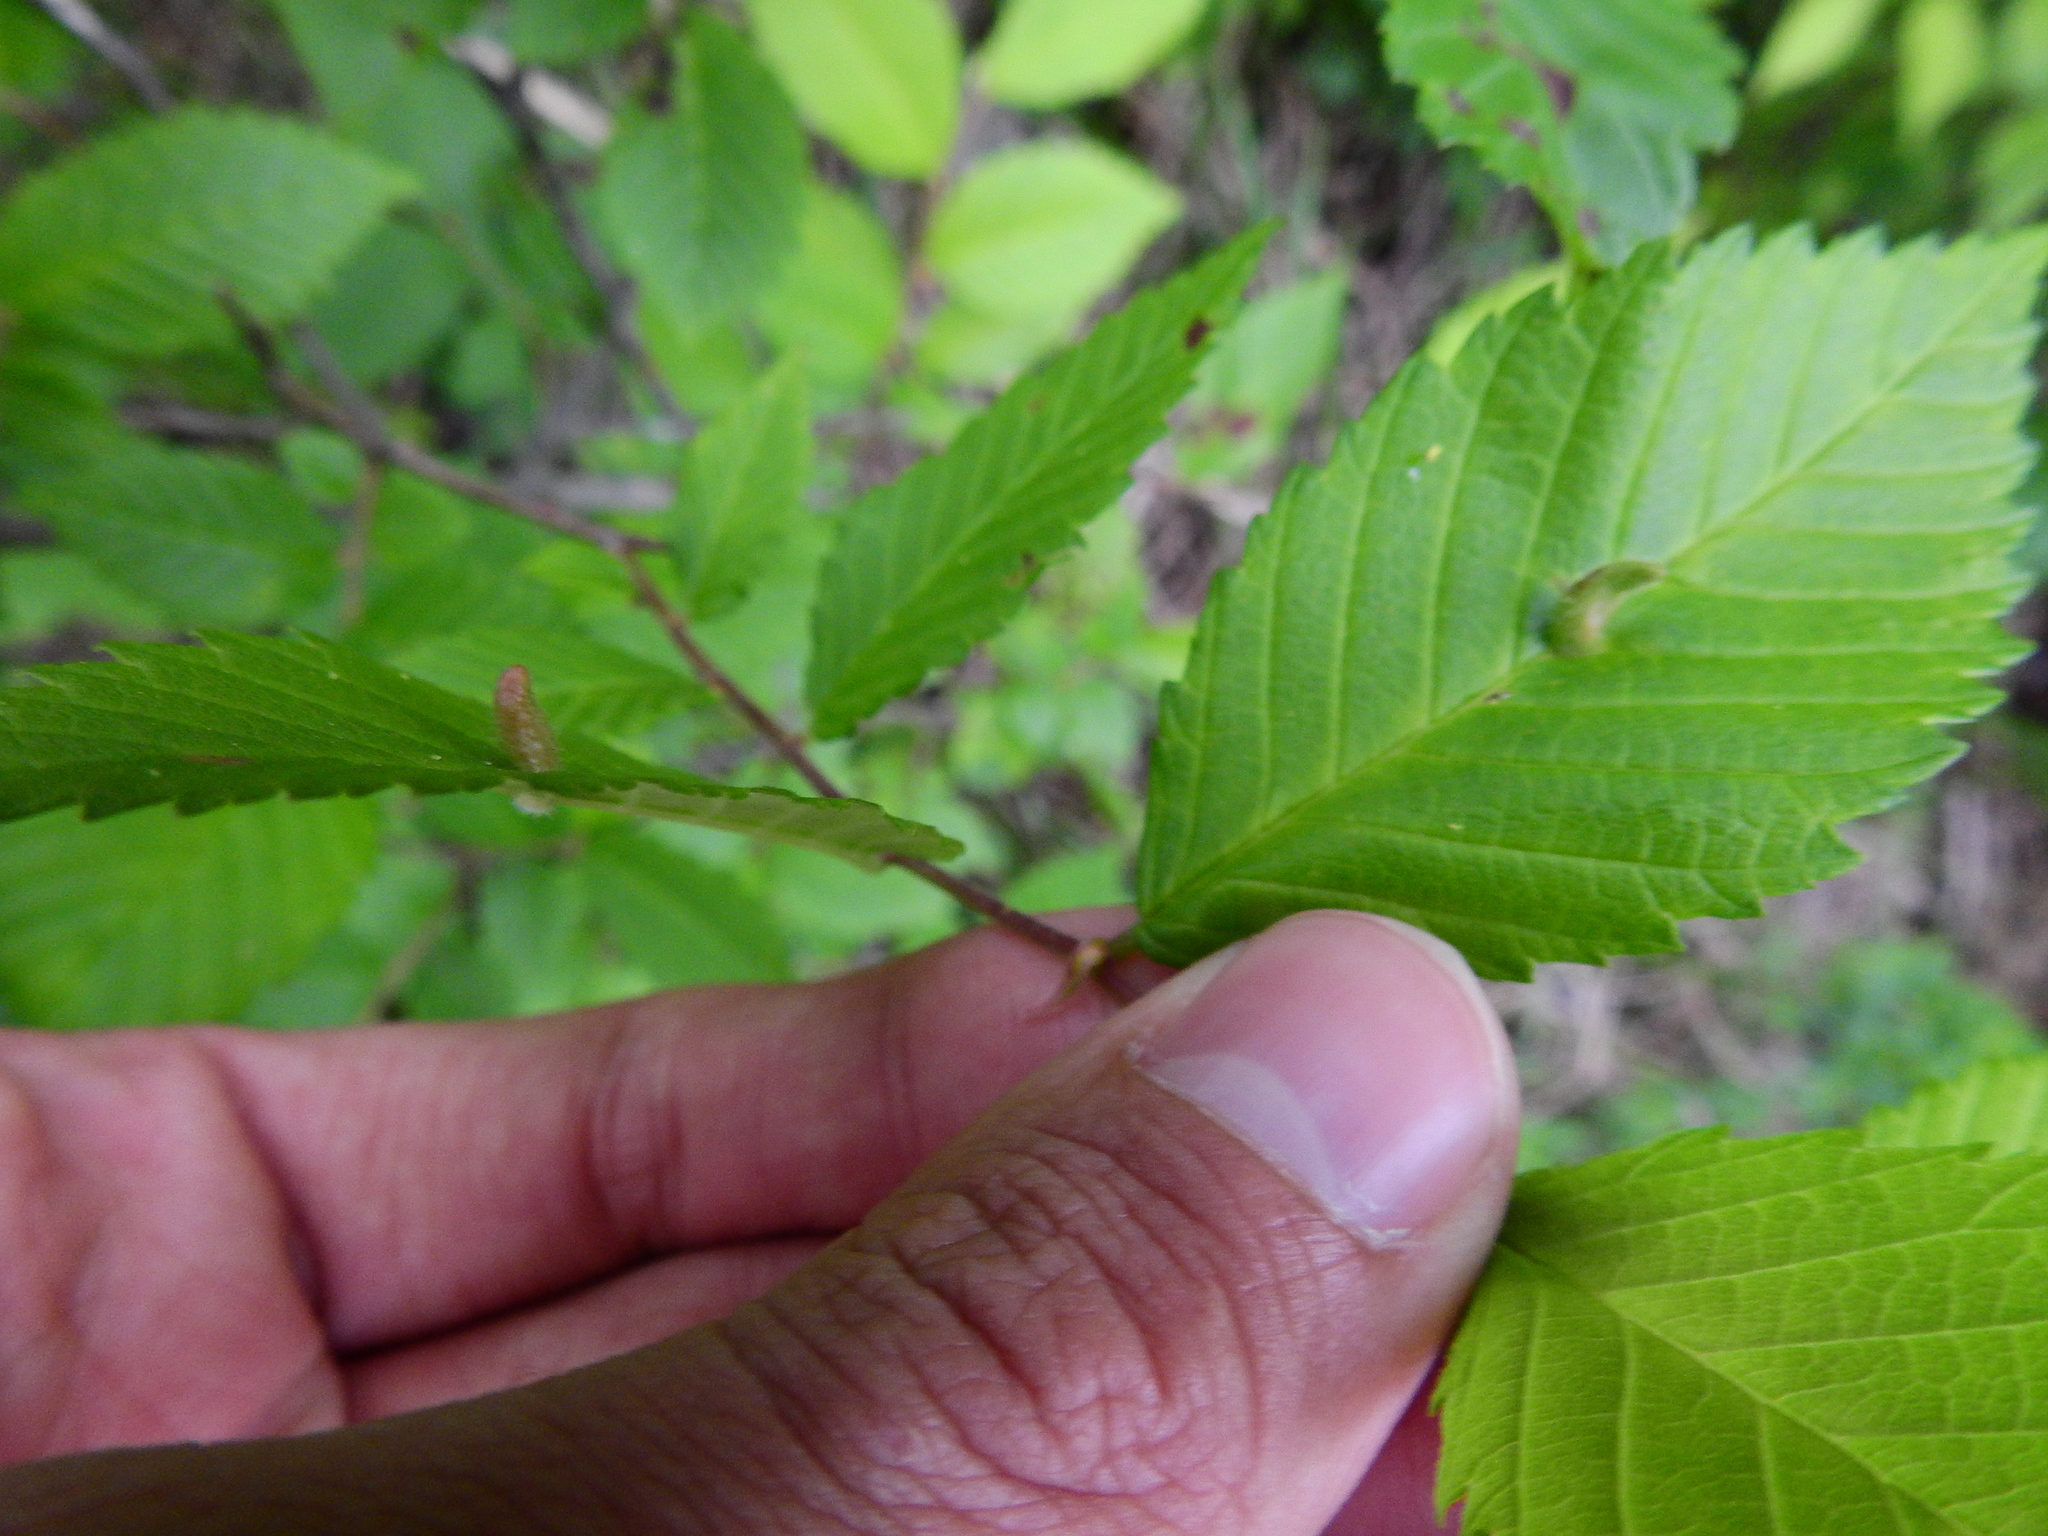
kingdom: Animalia
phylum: Arthropoda
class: Arachnida
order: Trombidiformes
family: Eriophyidae
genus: Aceria
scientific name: Aceria
